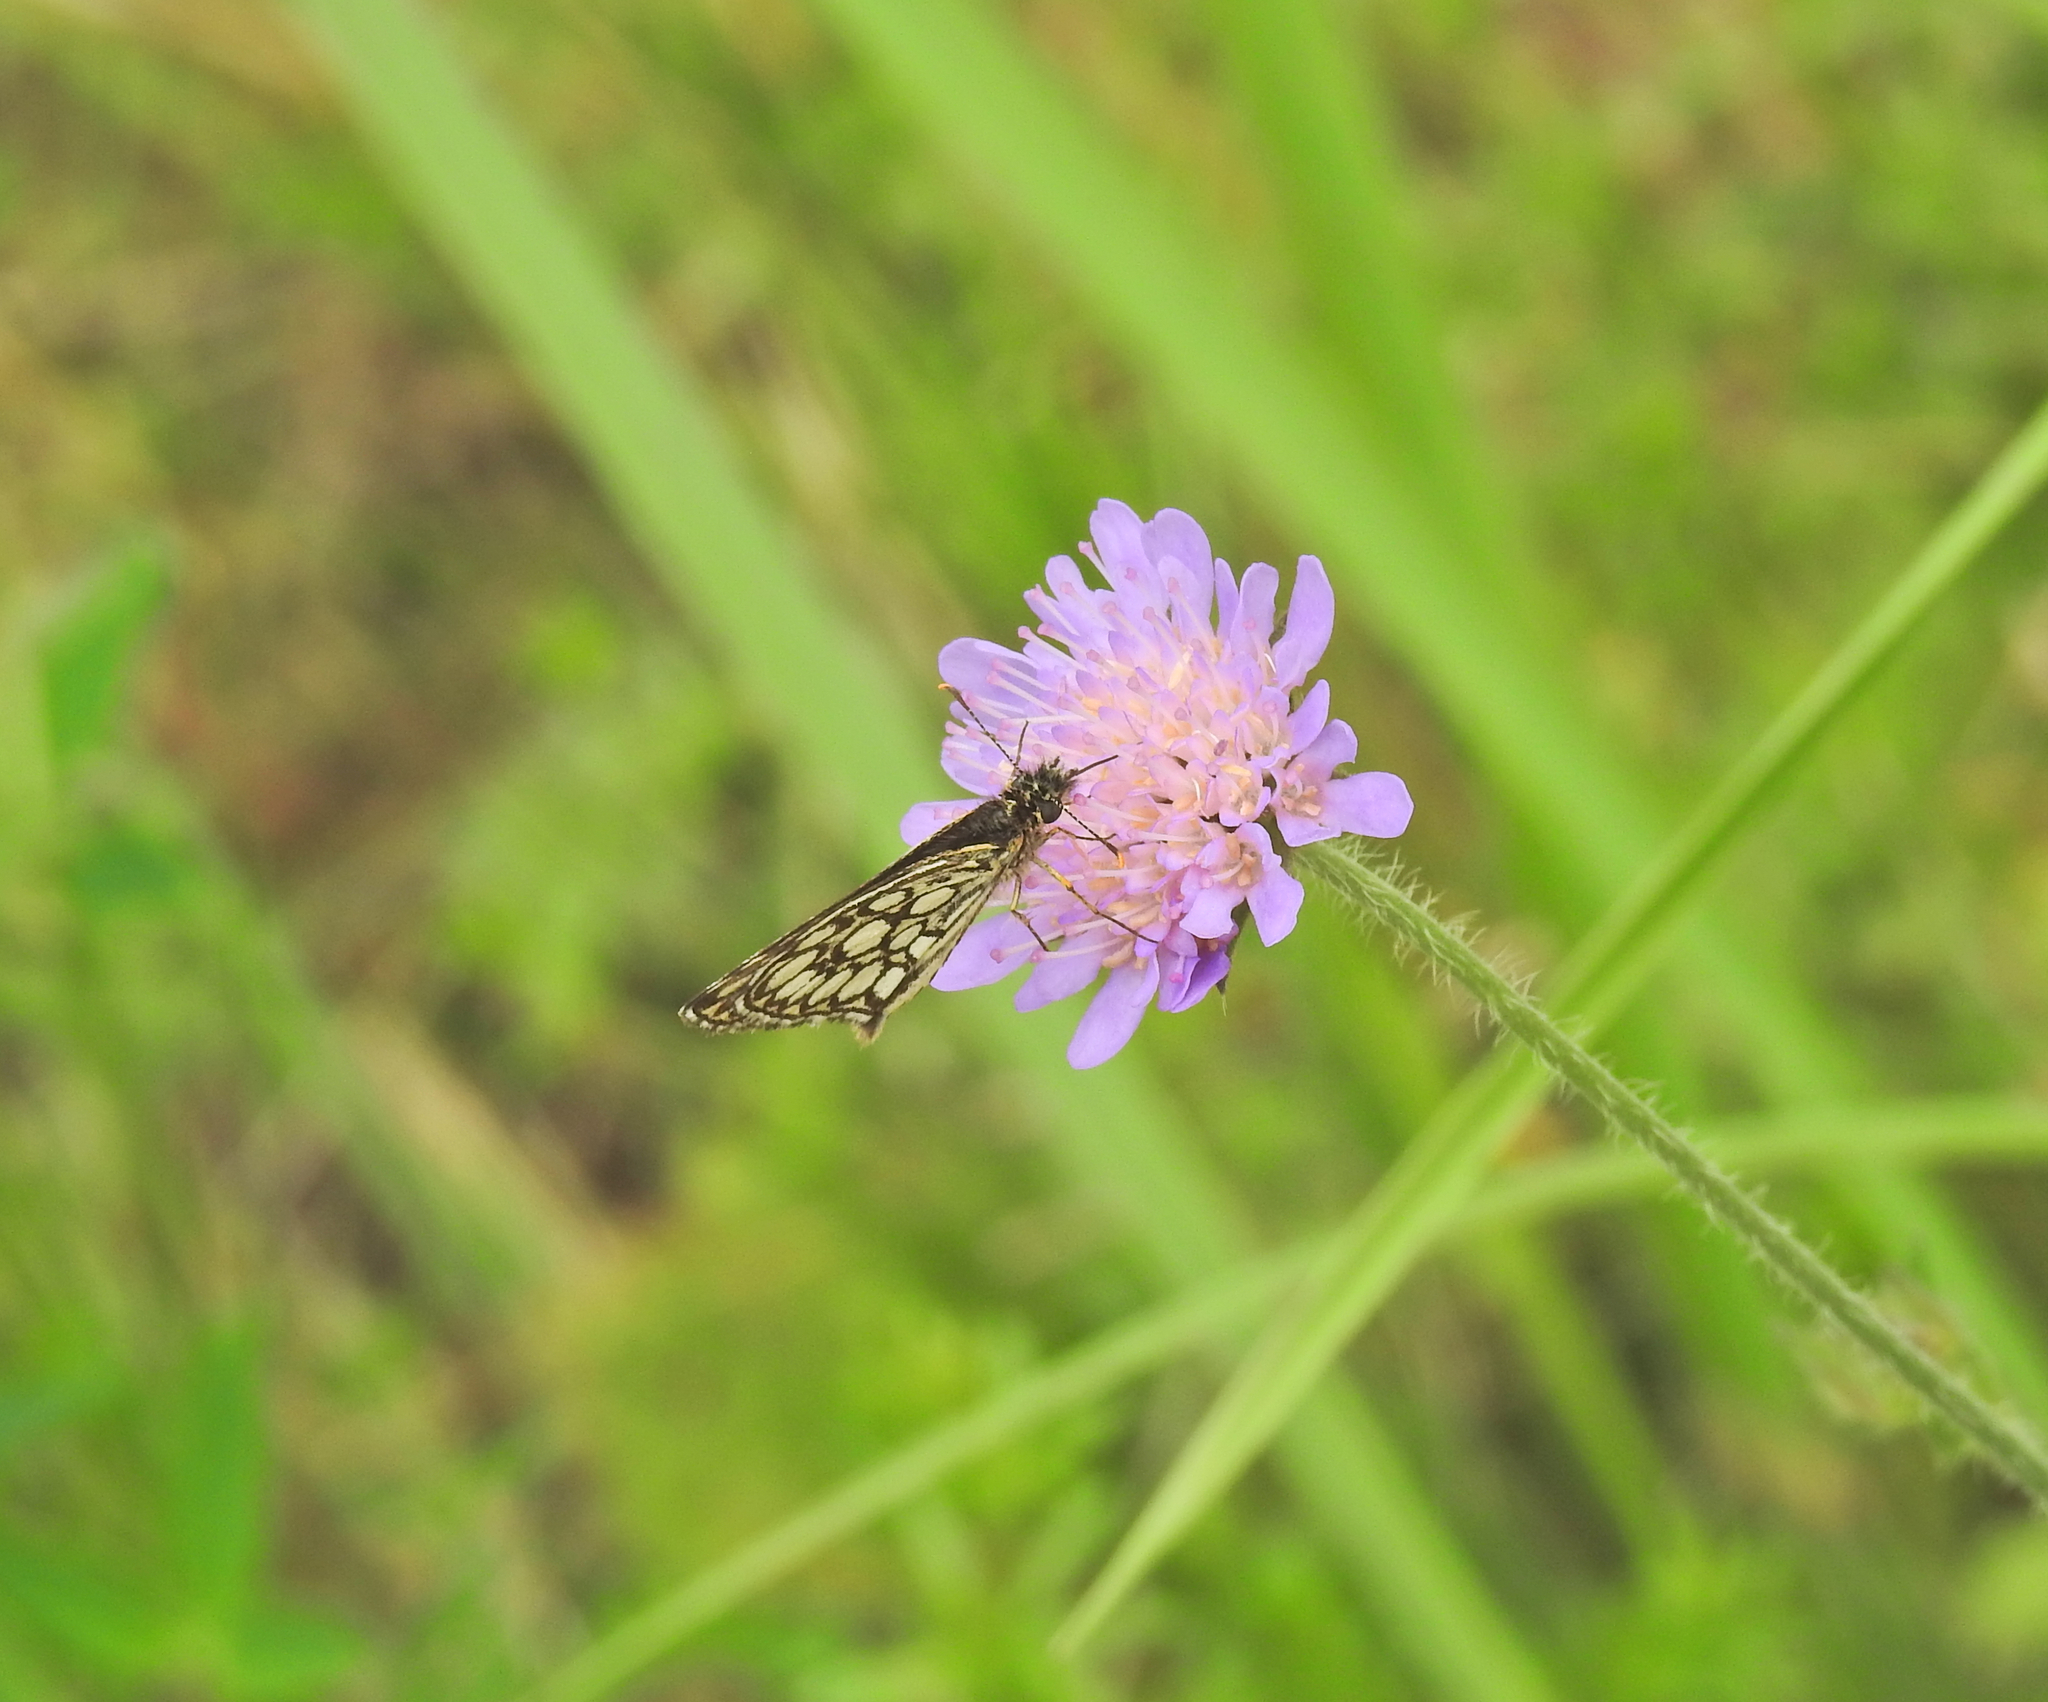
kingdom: Animalia
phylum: Arthropoda
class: Insecta
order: Lepidoptera
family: Hesperiidae
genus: Heteropterus
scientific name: Heteropterus morpheus
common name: Large chequered skipper
